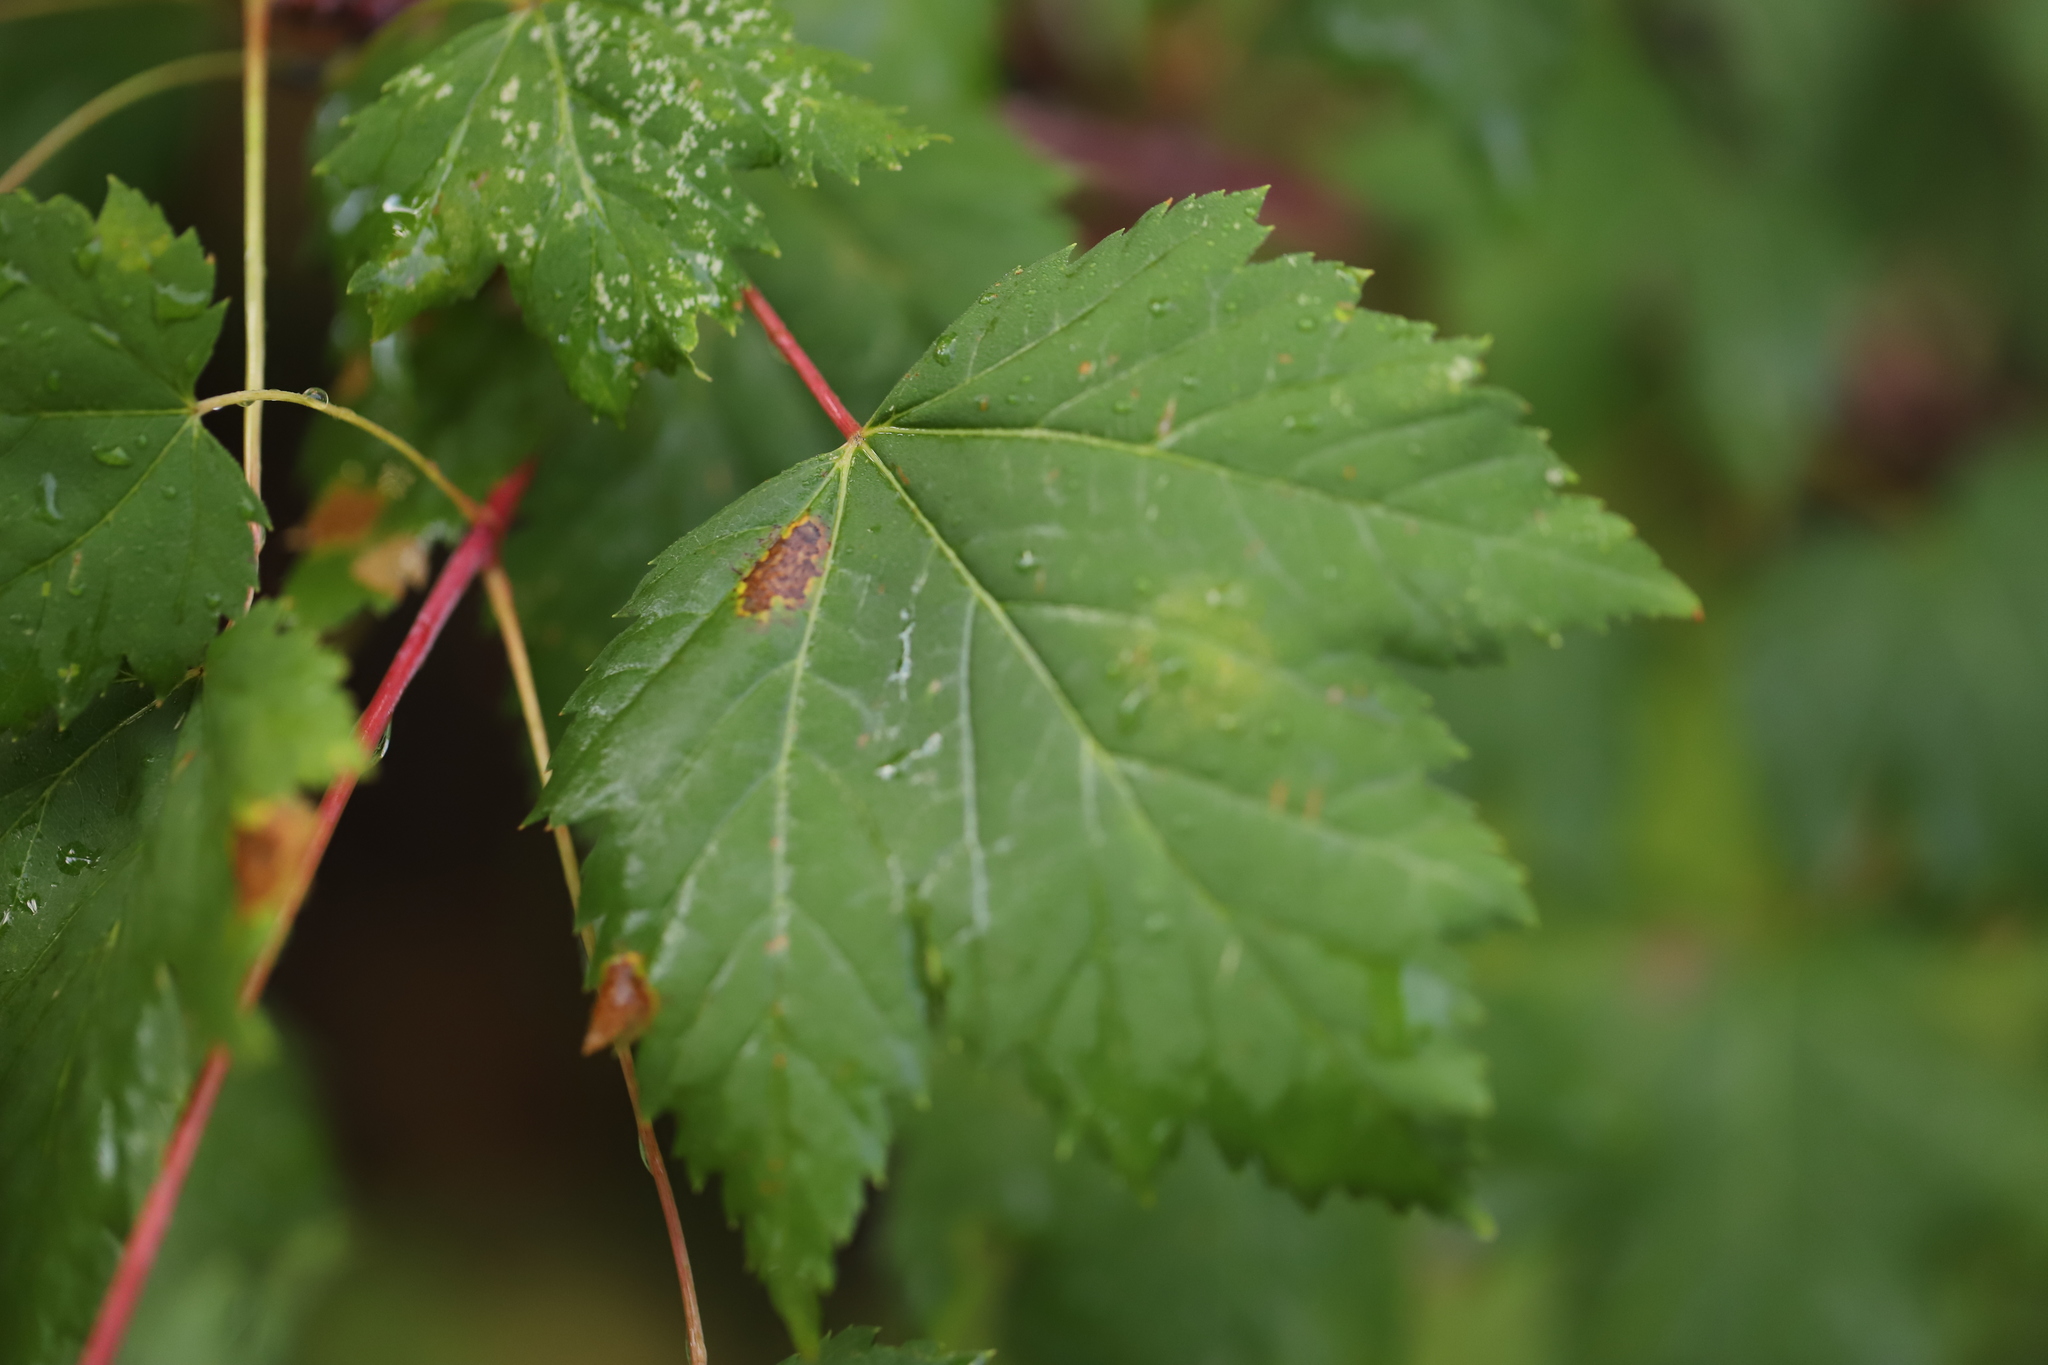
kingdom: Plantae
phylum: Tracheophyta
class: Magnoliopsida
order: Sapindales
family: Sapindaceae
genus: Acer
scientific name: Acer glabrum
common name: Rocky mountain maple
